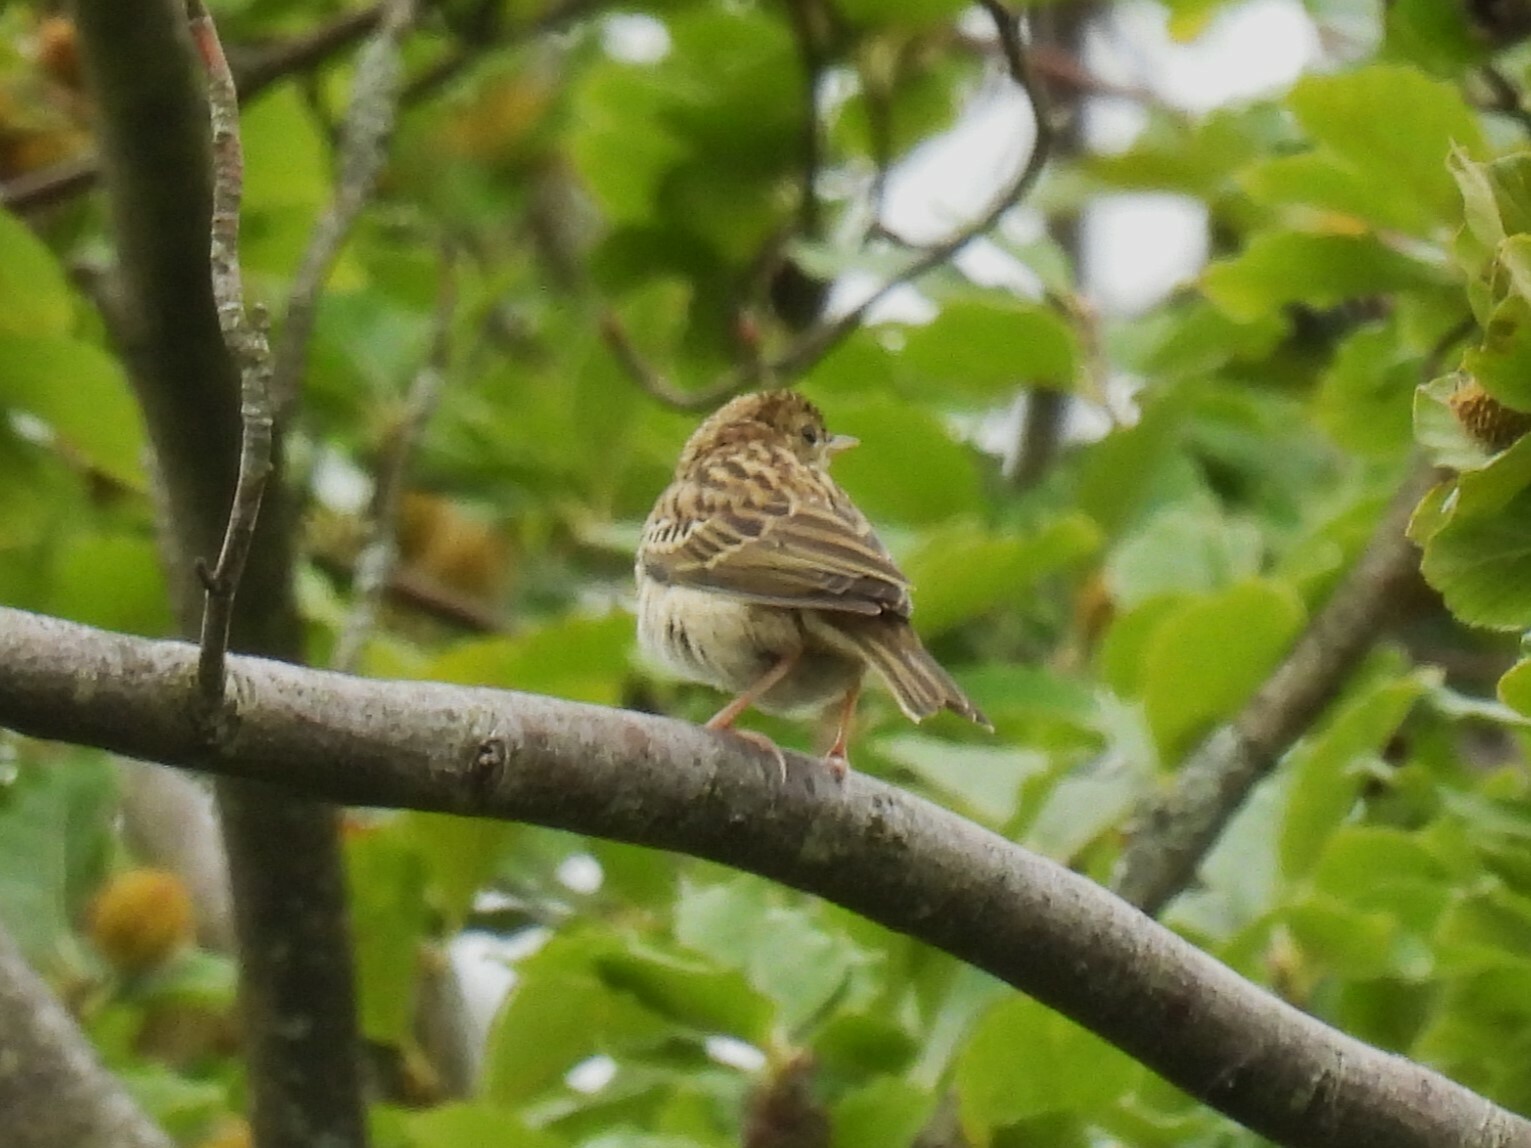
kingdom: Animalia
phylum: Chordata
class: Aves
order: Passeriformes
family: Motacillidae
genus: Anthus
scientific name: Anthus trivialis
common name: Tree pipit
